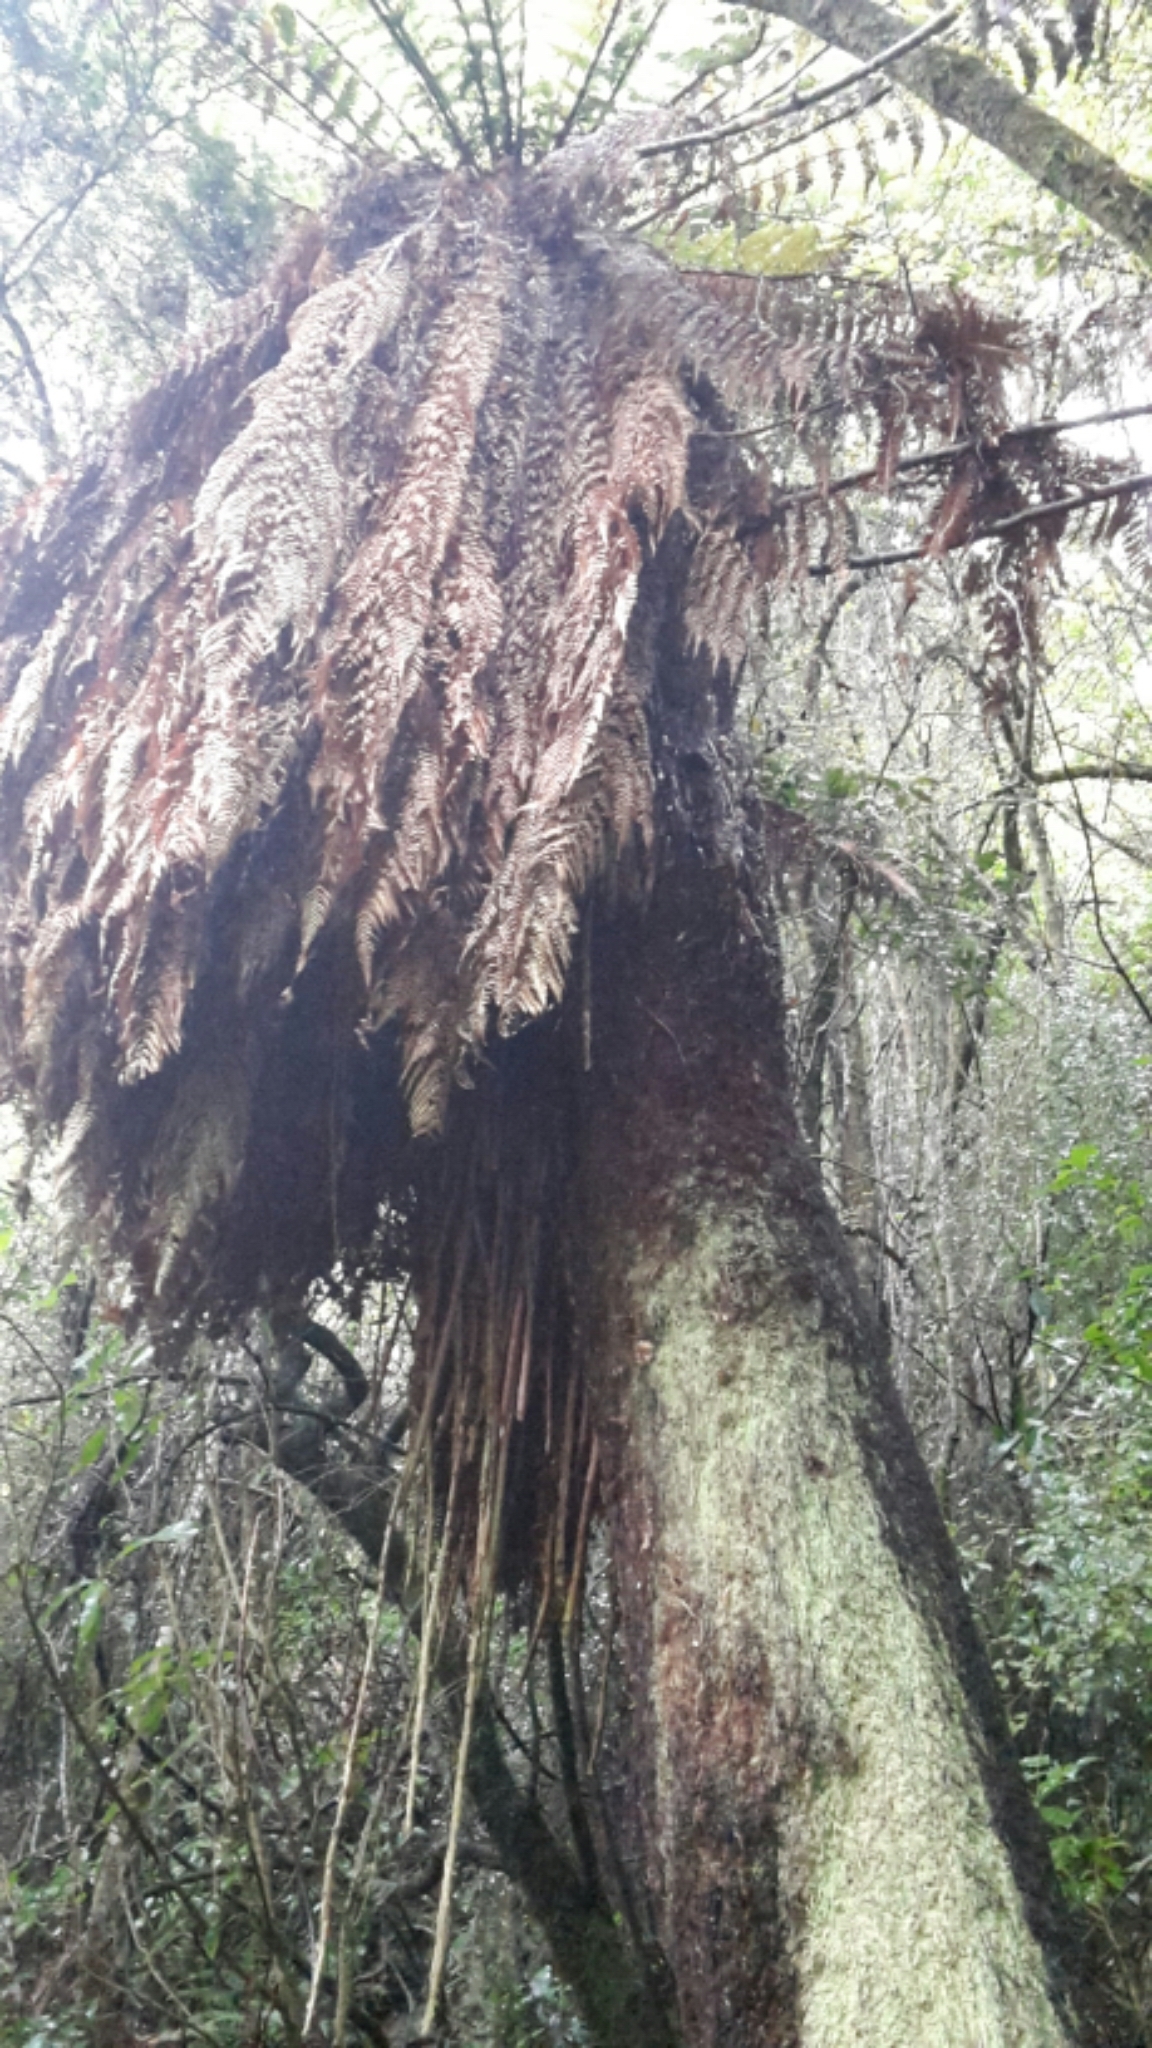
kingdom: Plantae
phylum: Tracheophyta
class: Polypodiopsida
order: Cyatheales
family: Dicksoniaceae
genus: Dicksonia
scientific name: Dicksonia fibrosa
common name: Golden tree fern
